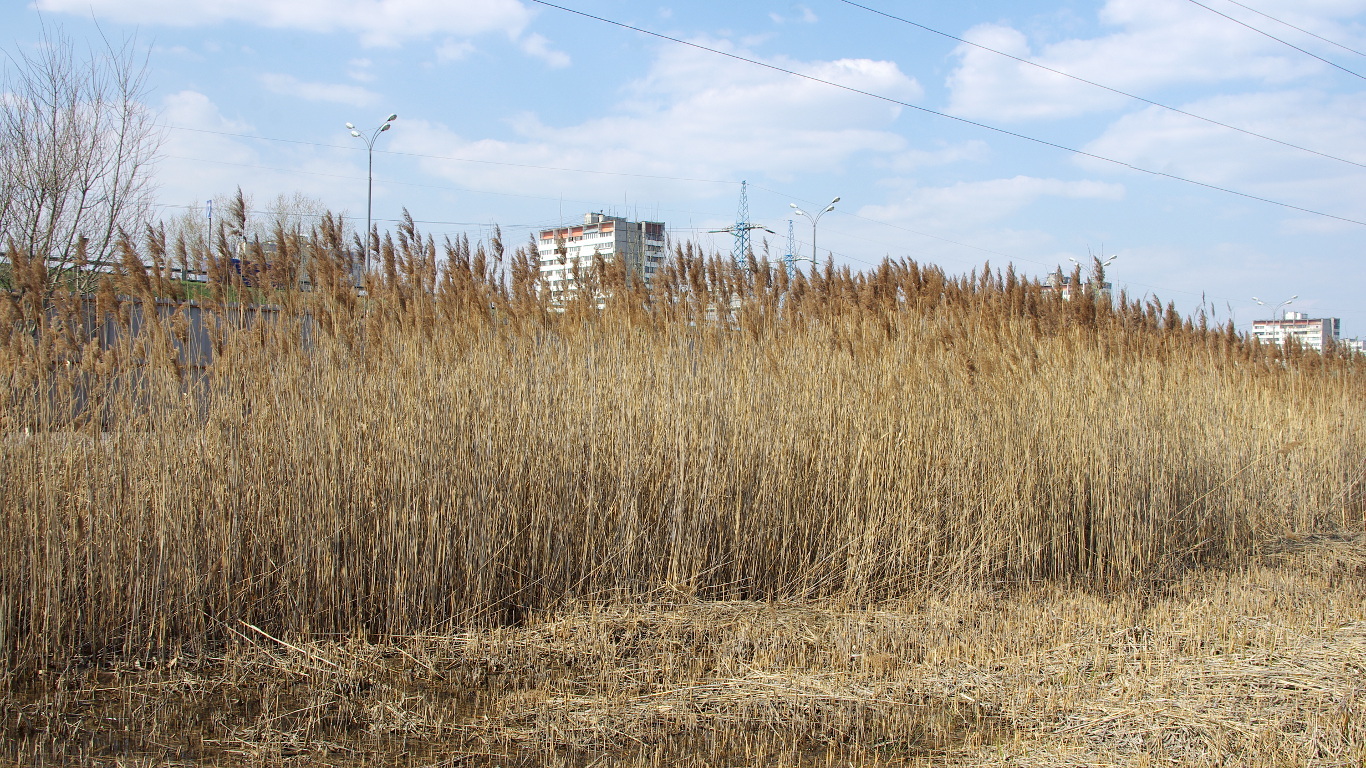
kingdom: Plantae
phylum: Tracheophyta
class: Liliopsida
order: Poales
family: Poaceae
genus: Phragmites
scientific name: Phragmites australis
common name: Common reed
